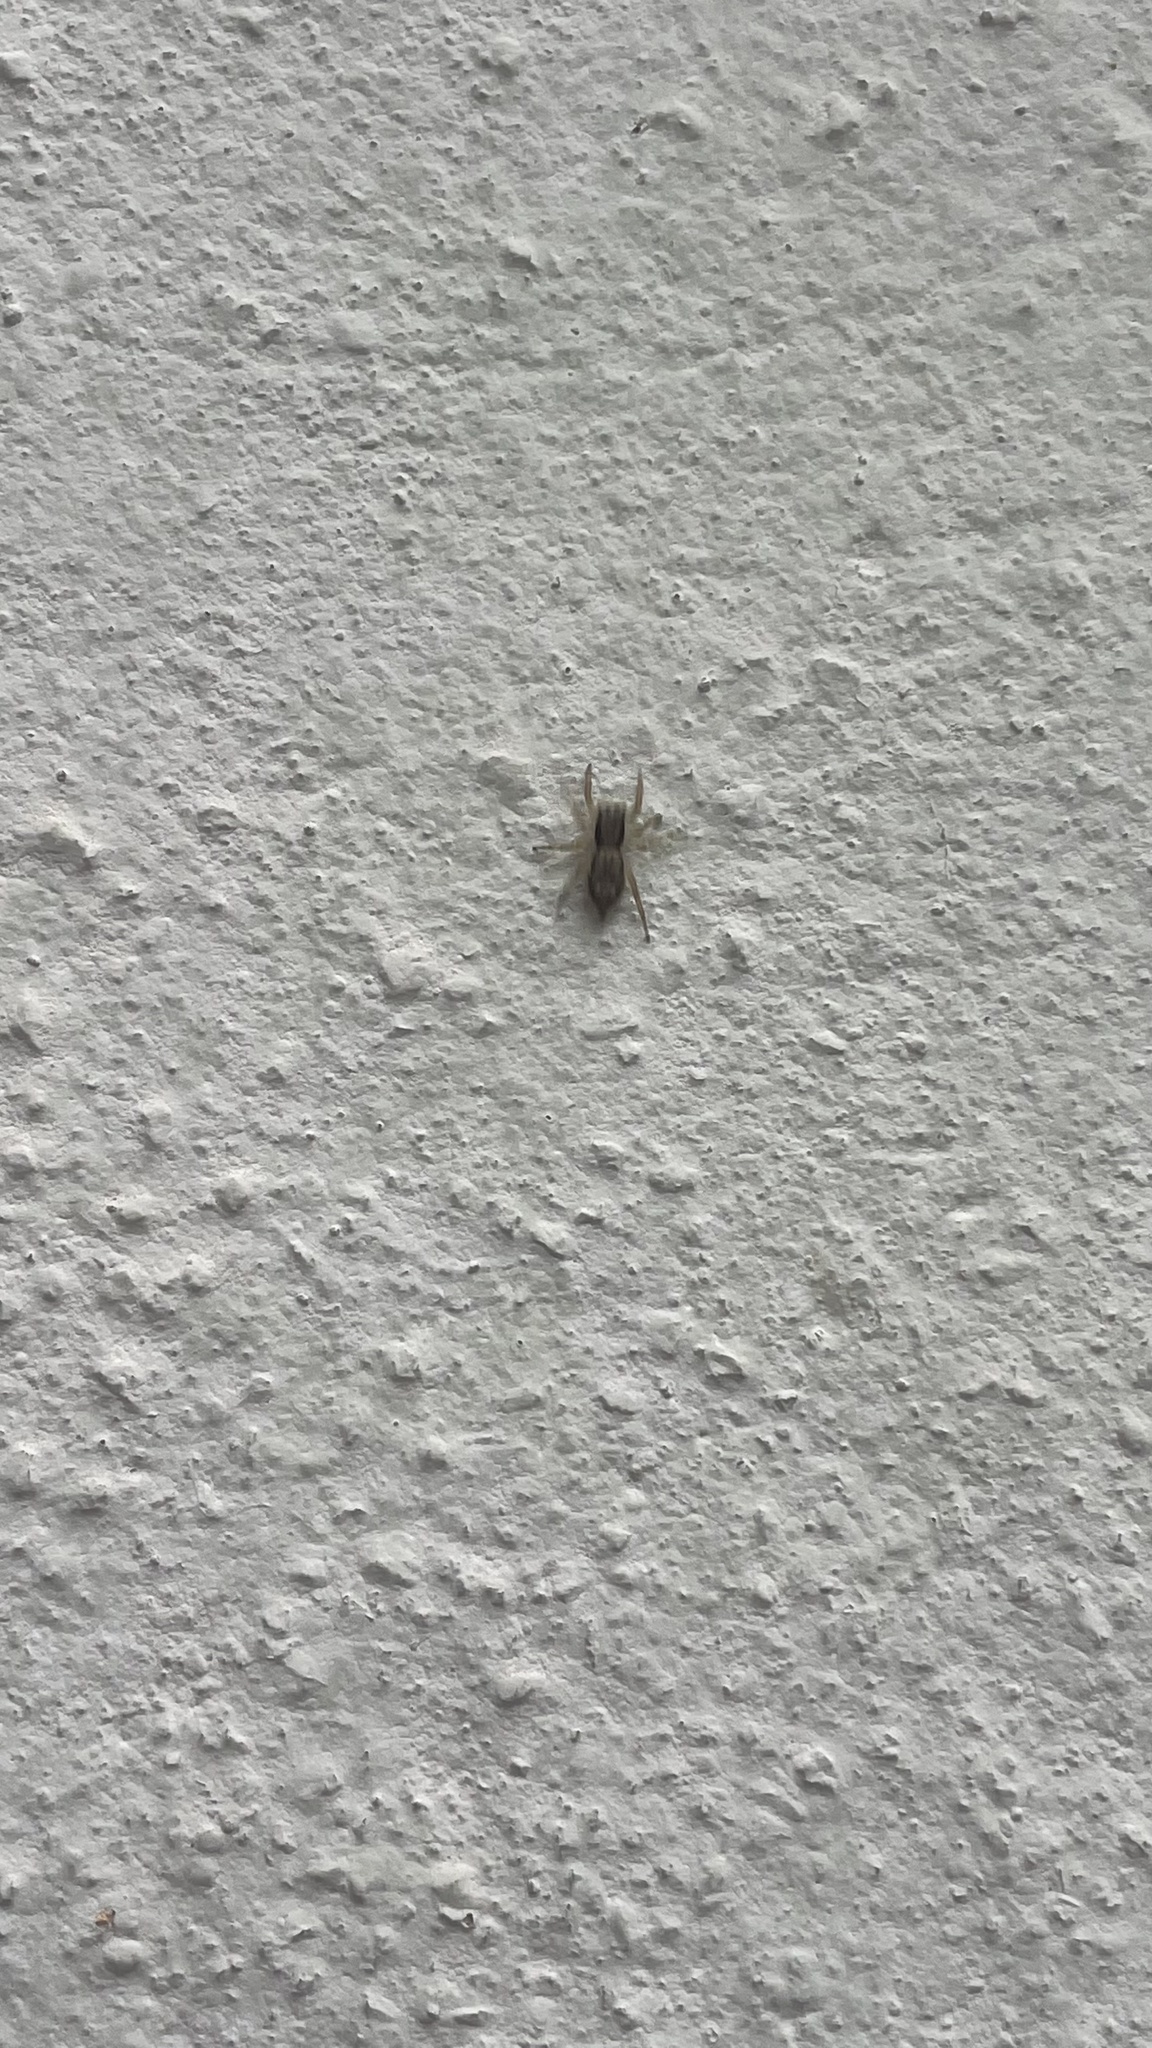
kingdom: Animalia
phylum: Arthropoda
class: Arachnida
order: Araneae
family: Salticidae
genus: Menemerus
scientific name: Menemerus bivittatus
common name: Gray wall jumper
